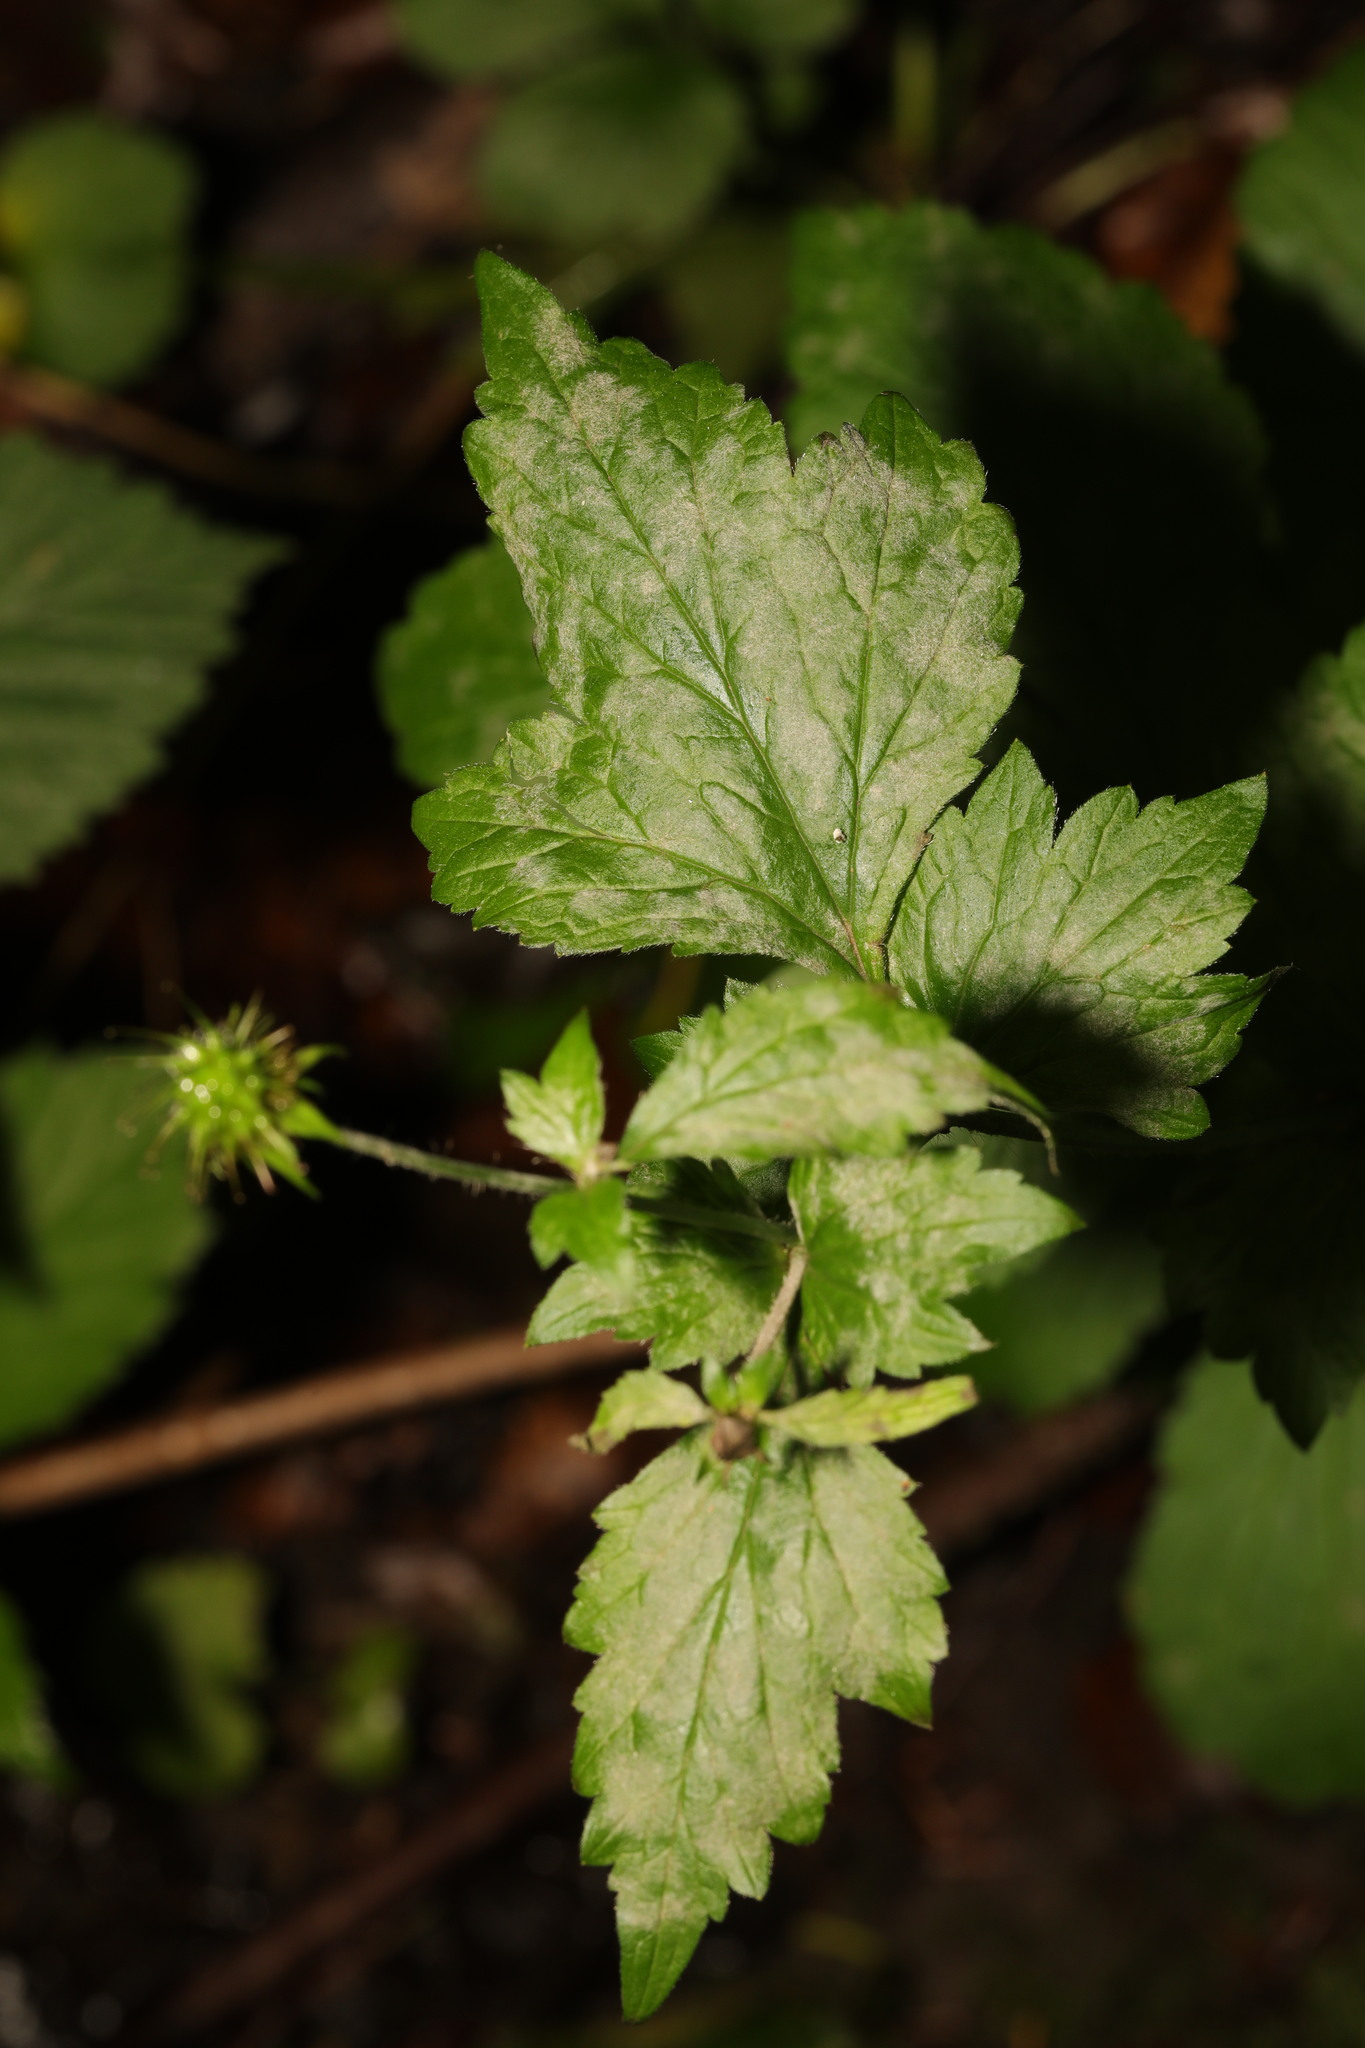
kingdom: Plantae
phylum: Tracheophyta
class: Magnoliopsida
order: Rosales
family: Rosaceae
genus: Geum
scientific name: Geum urbanum
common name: Wood avens
